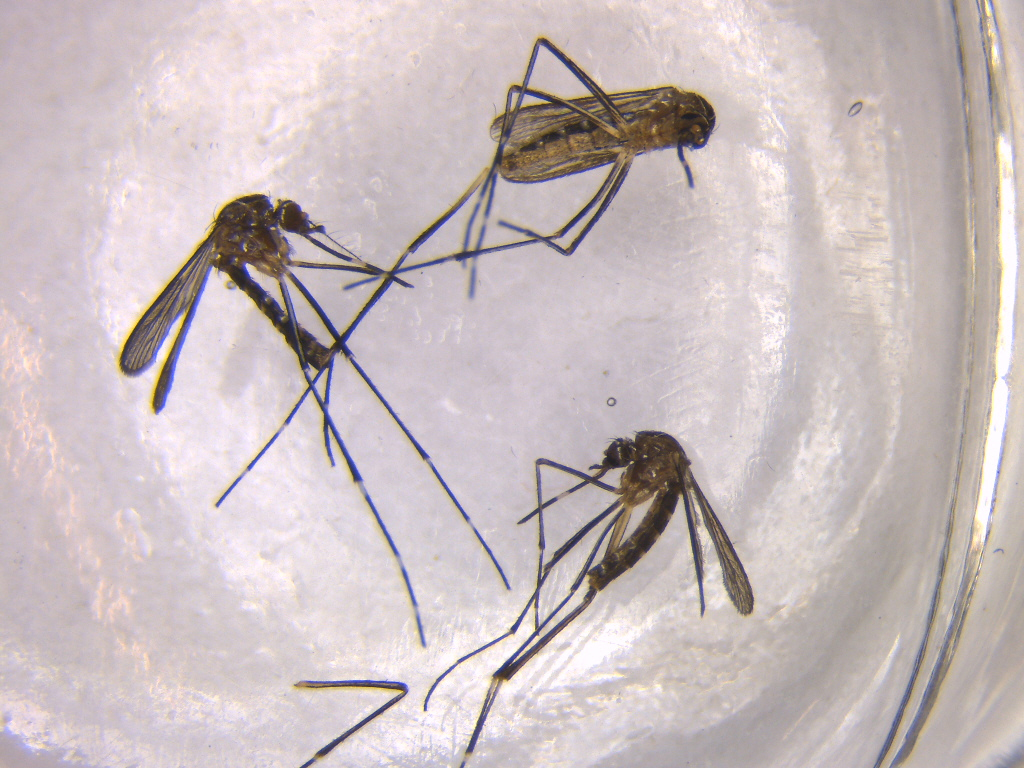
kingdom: Animalia
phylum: Arthropoda
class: Insecta
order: Diptera
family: Culicidae
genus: Aedes
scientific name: Aedes notoscriptus
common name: Australian backyard mosquito
